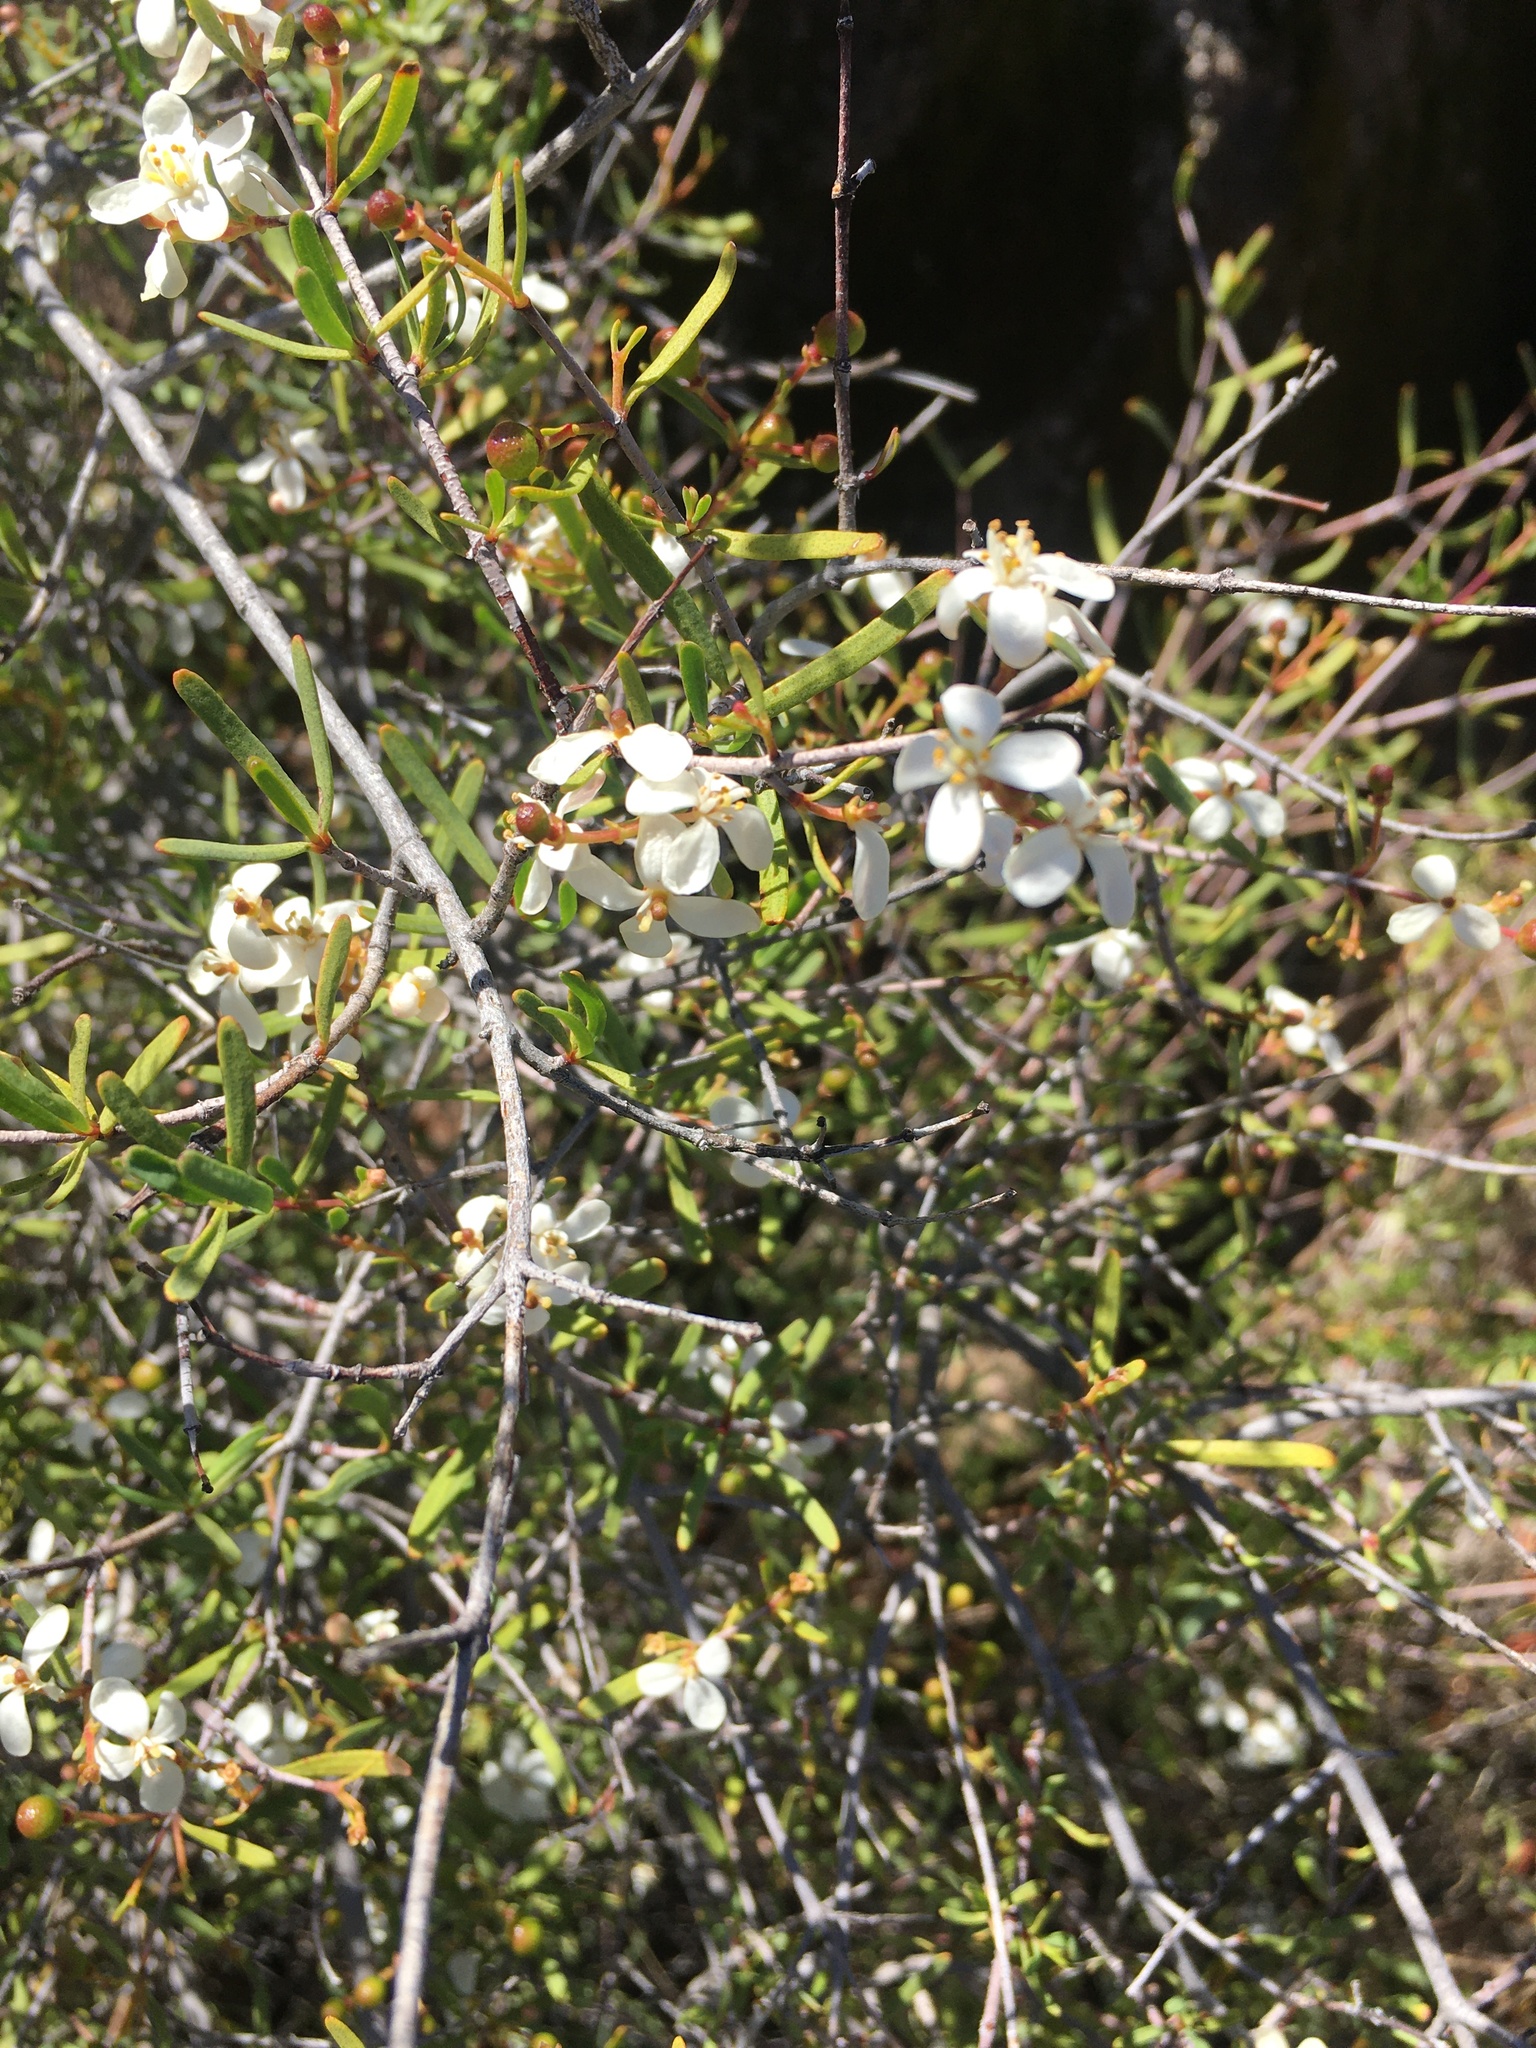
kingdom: Plantae
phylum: Tracheophyta
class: Magnoliopsida
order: Sapindales
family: Rutaceae
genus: Cneoridium
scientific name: Cneoridium dumosum
